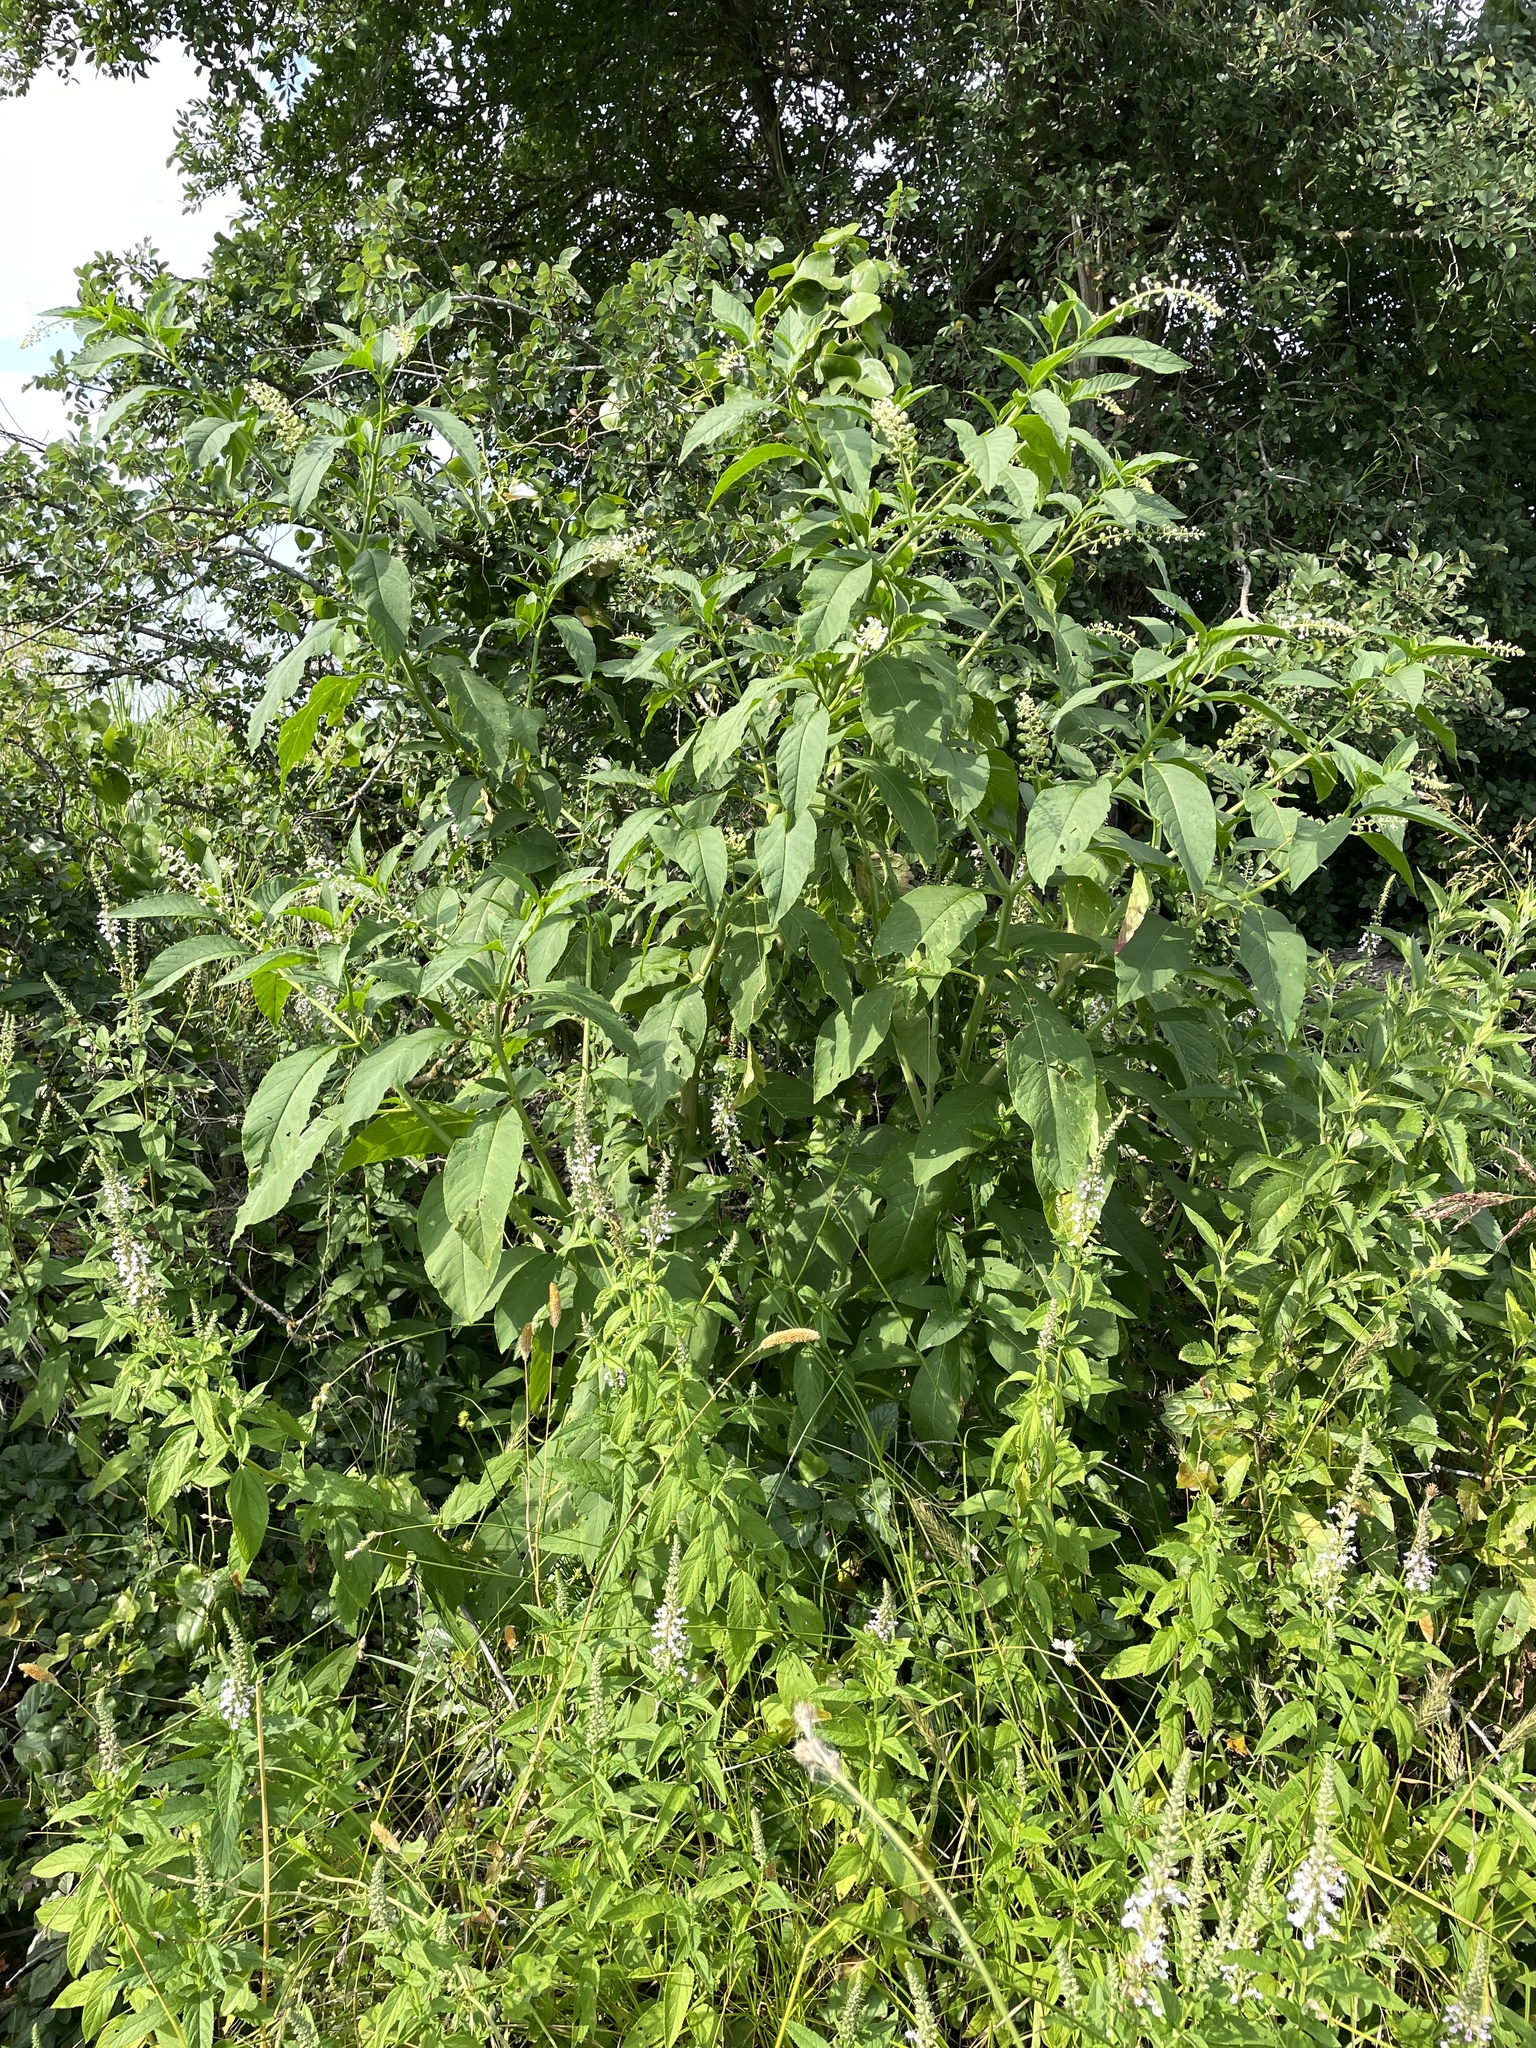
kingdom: Plantae
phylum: Tracheophyta
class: Magnoliopsida
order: Caryophyllales
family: Phytolaccaceae
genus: Phytolacca
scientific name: Phytolacca americana
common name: American pokeweed
